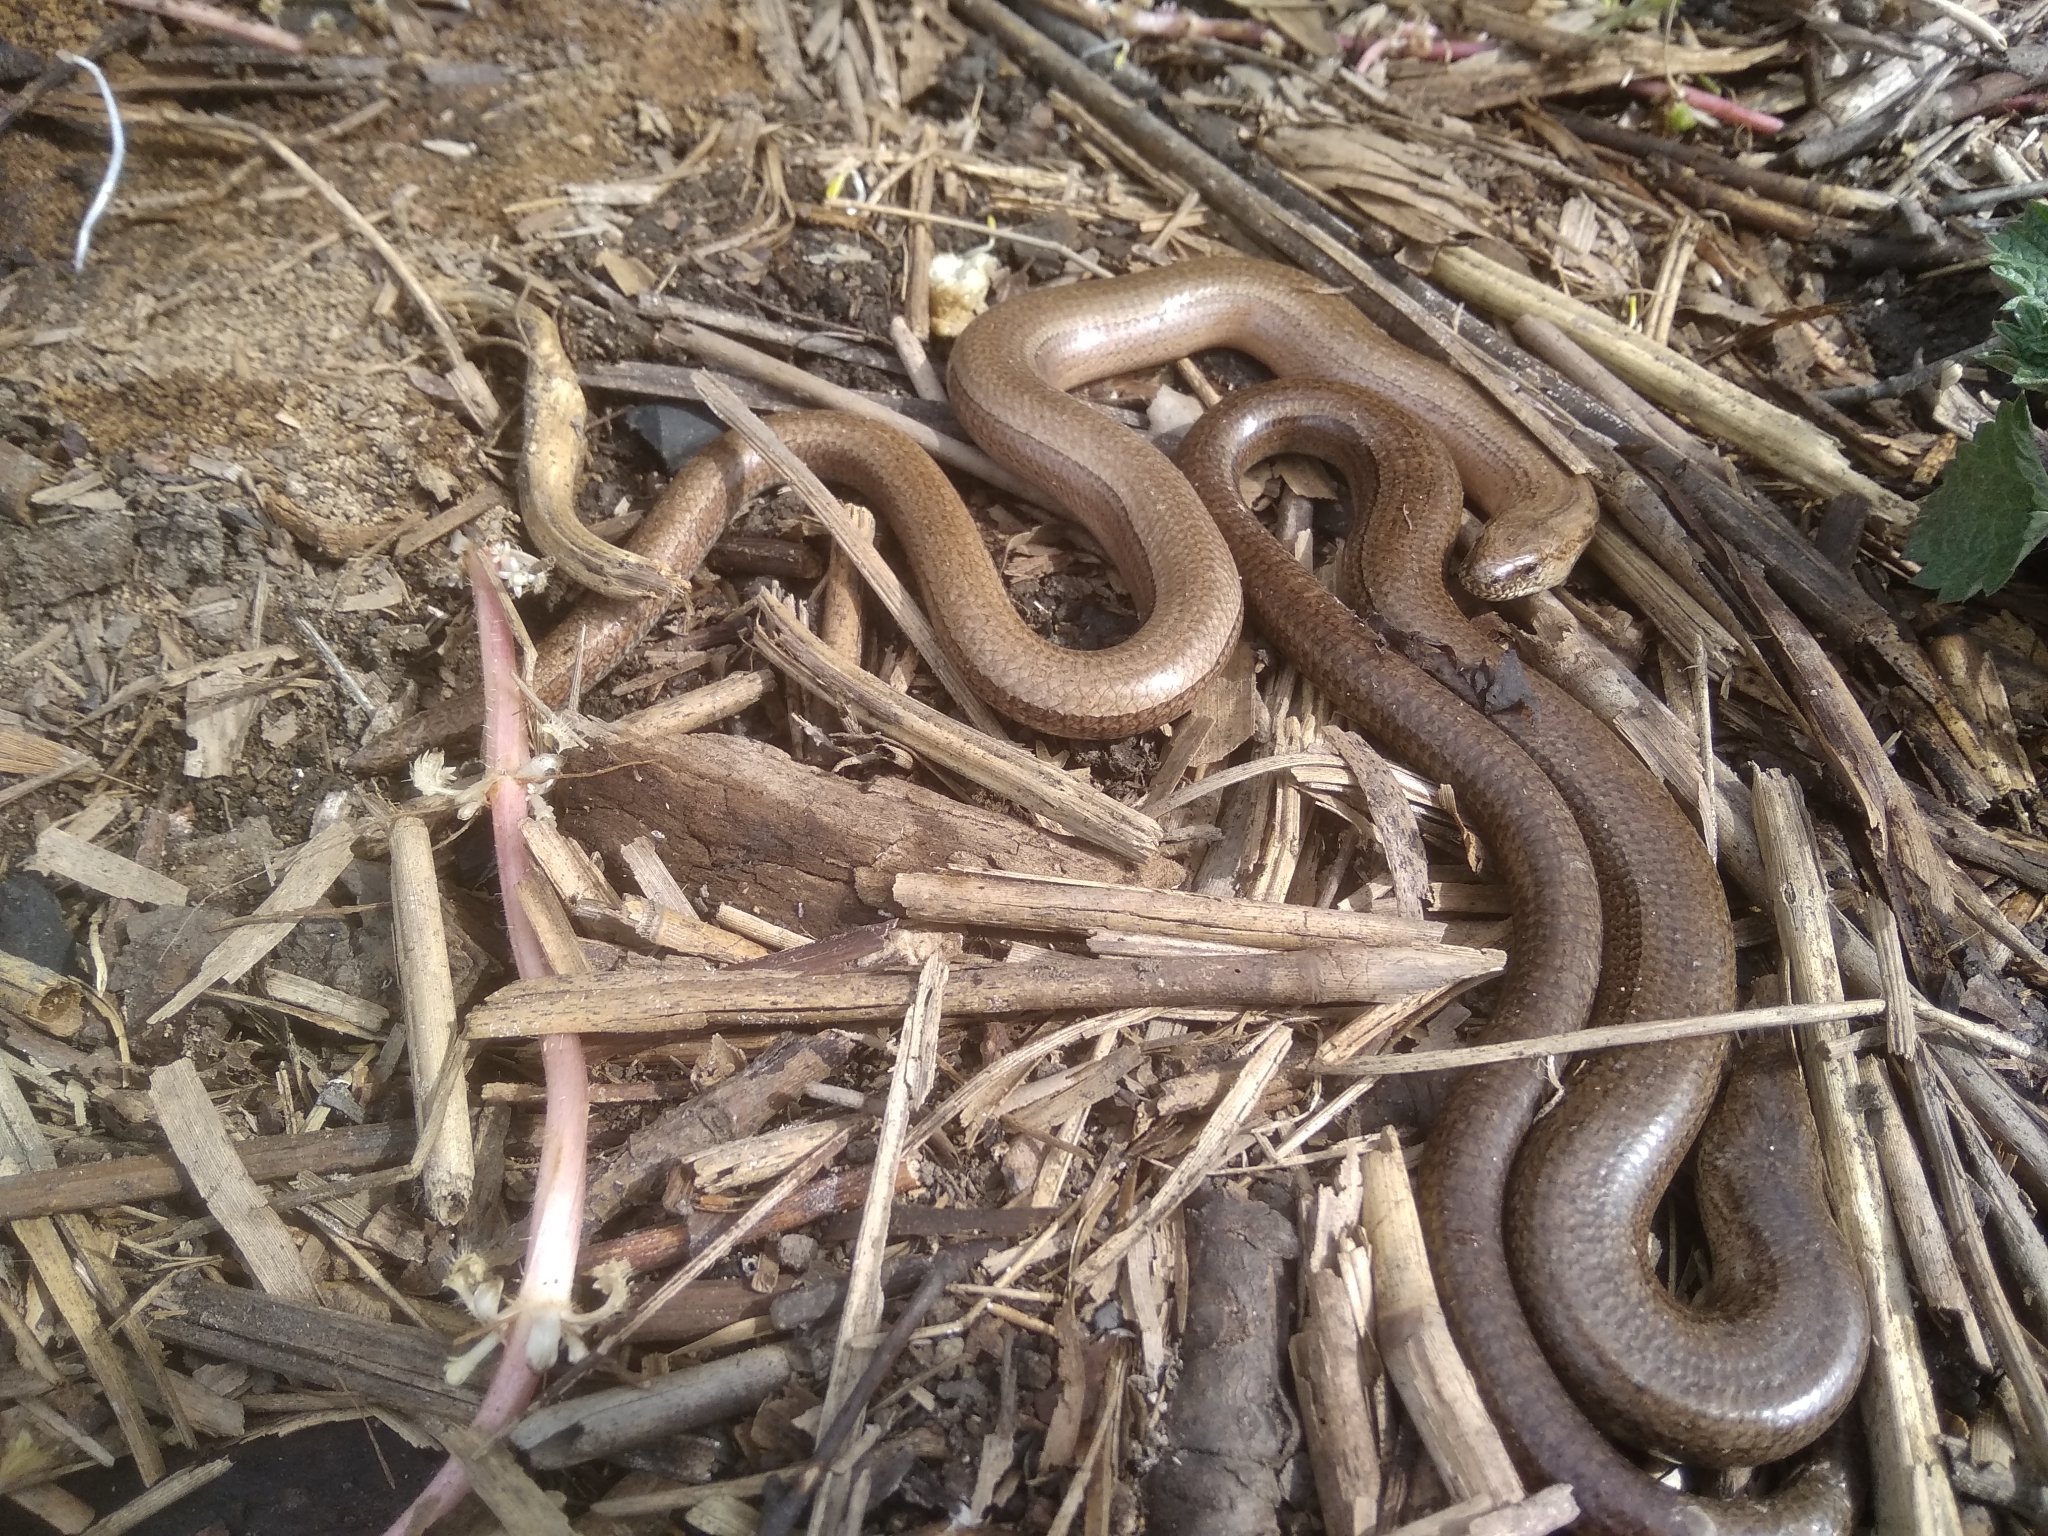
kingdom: Animalia
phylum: Chordata
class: Squamata
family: Anguidae
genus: Anguis
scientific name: Anguis fragilis
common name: Slow worm
